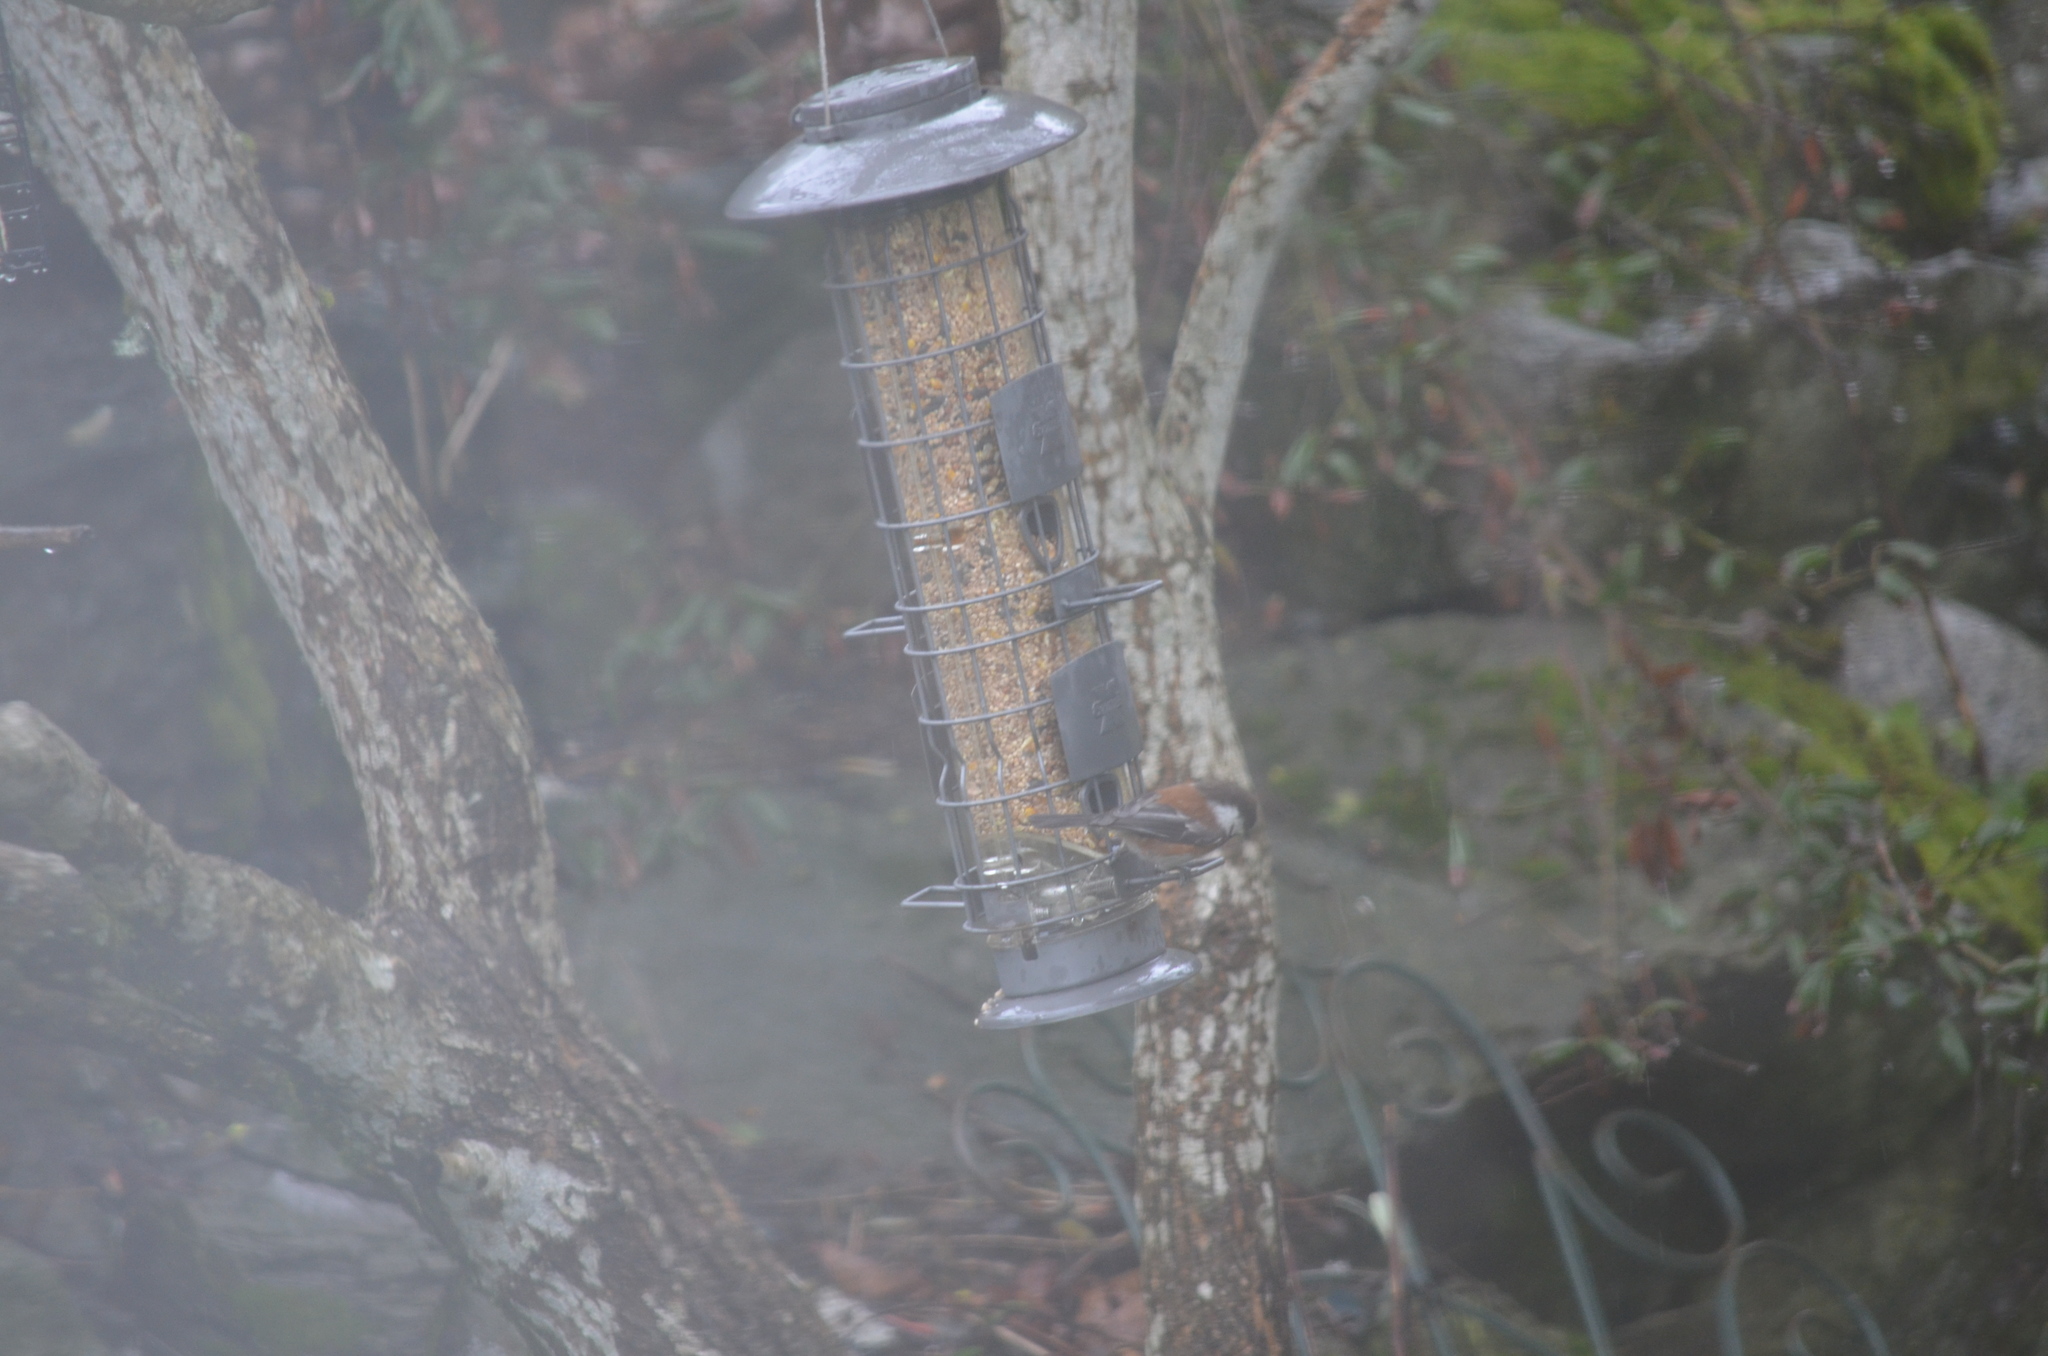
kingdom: Animalia
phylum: Chordata
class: Aves
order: Passeriformes
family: Paridae
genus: Poecile
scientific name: Poecile rufescens
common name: Chestnut-backed chickadee
